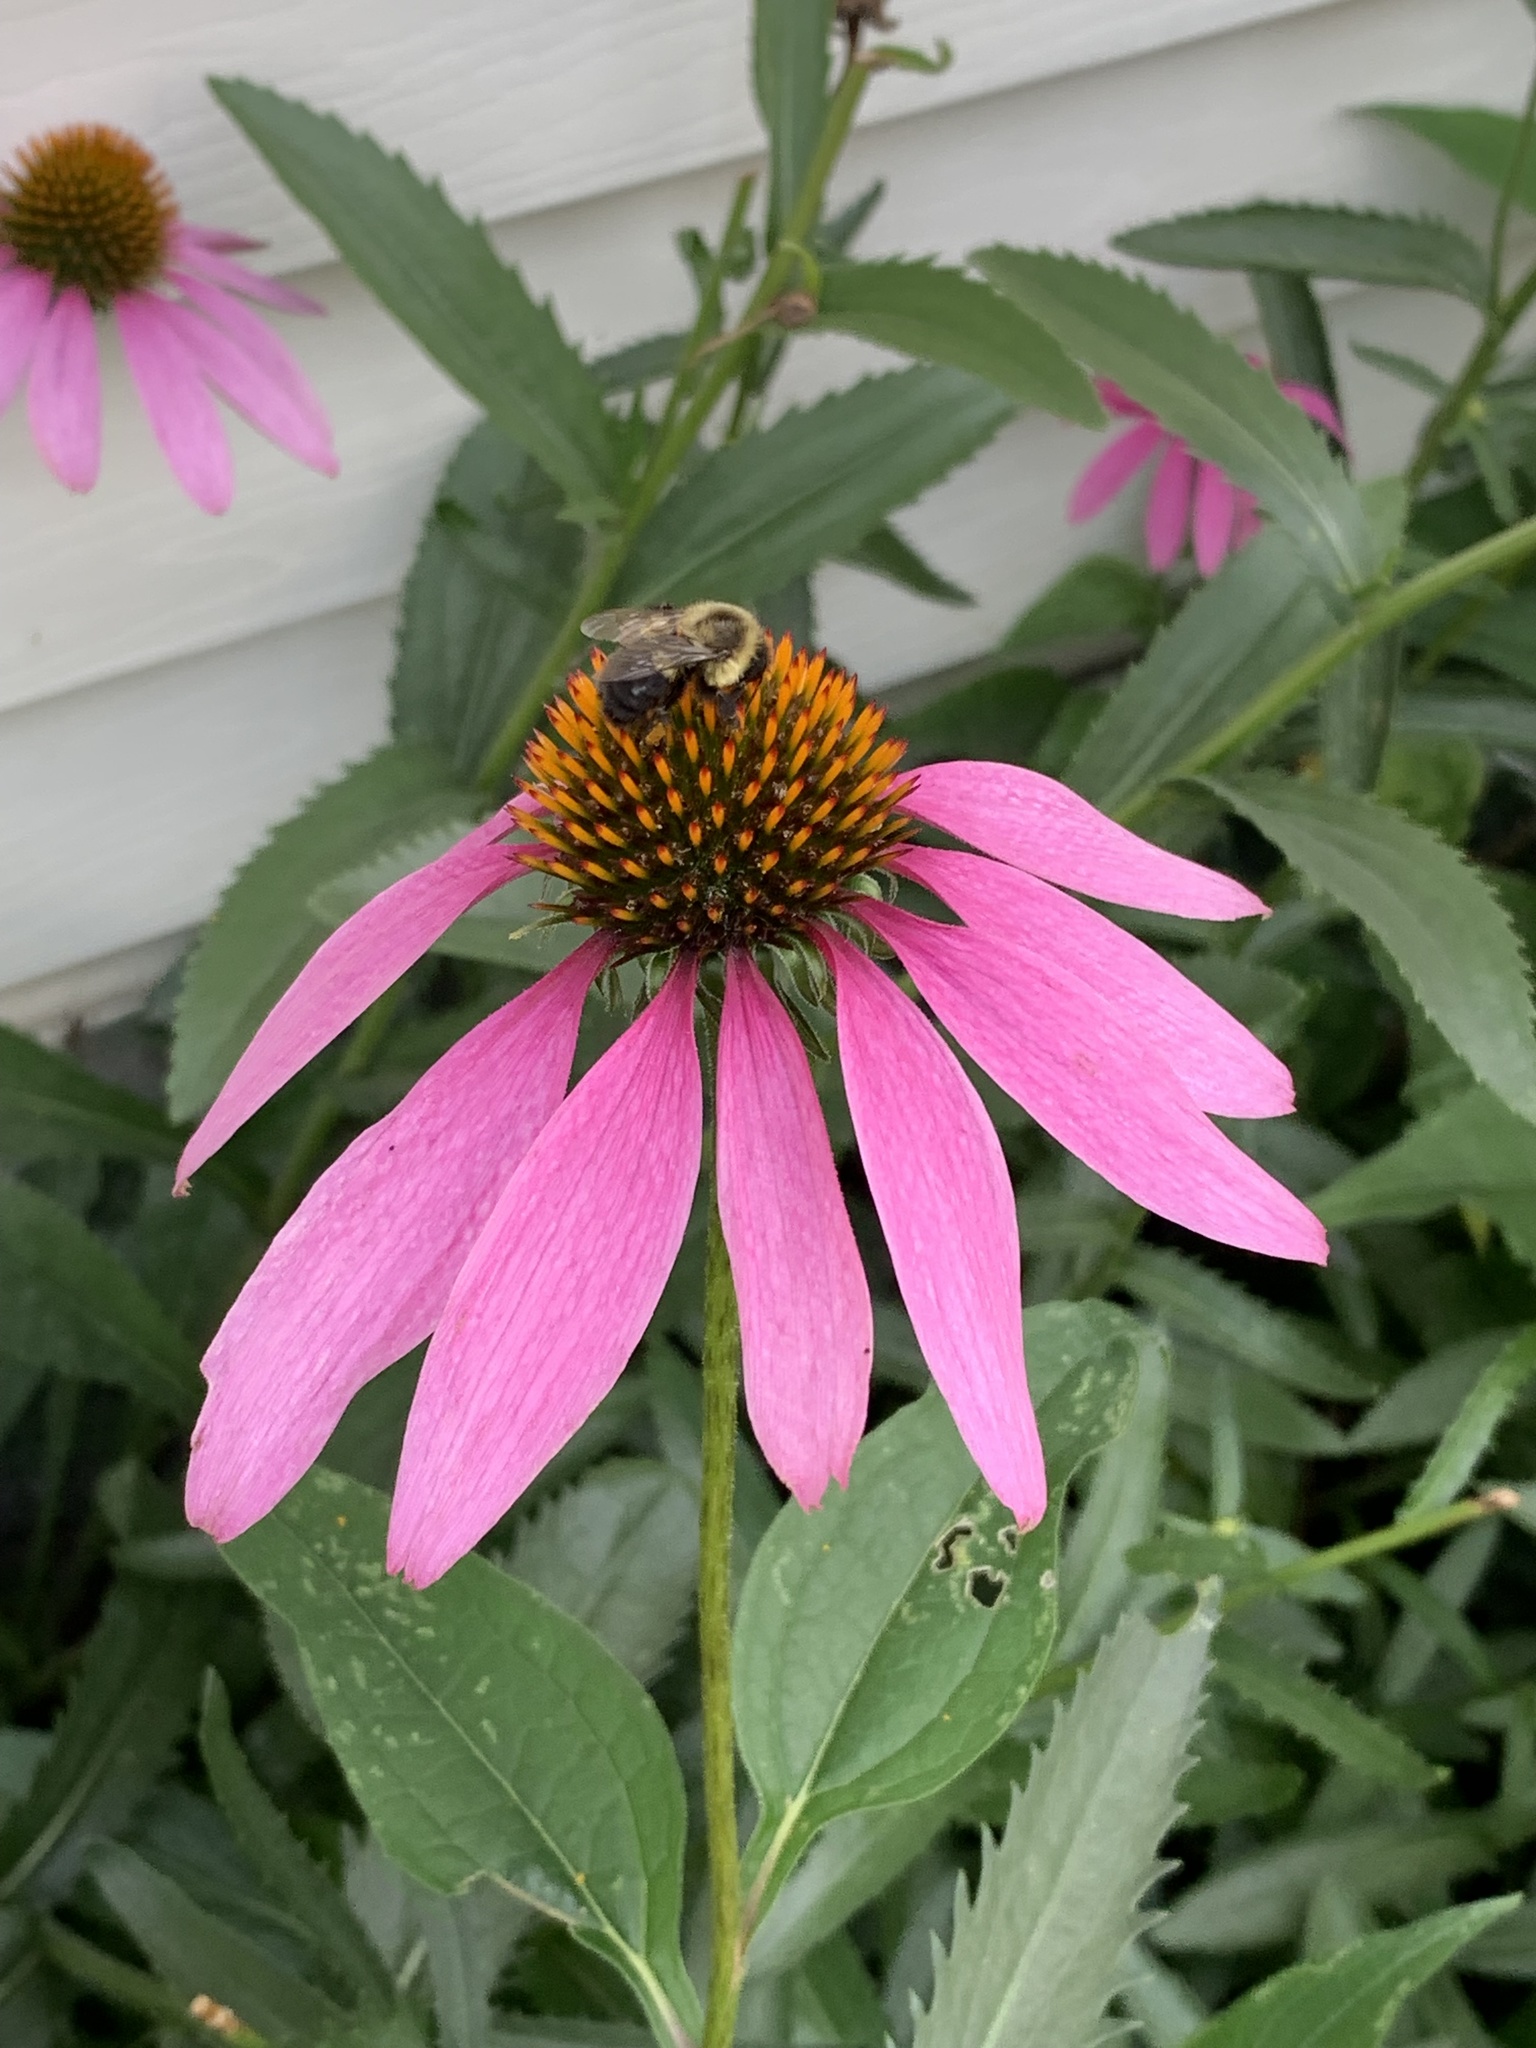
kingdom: Animalia
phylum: Arthropoda
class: Insecta
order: Hymenoptera
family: Apidae
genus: Bombus
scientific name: Bombus impatiens
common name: Common eastern bumble bee
